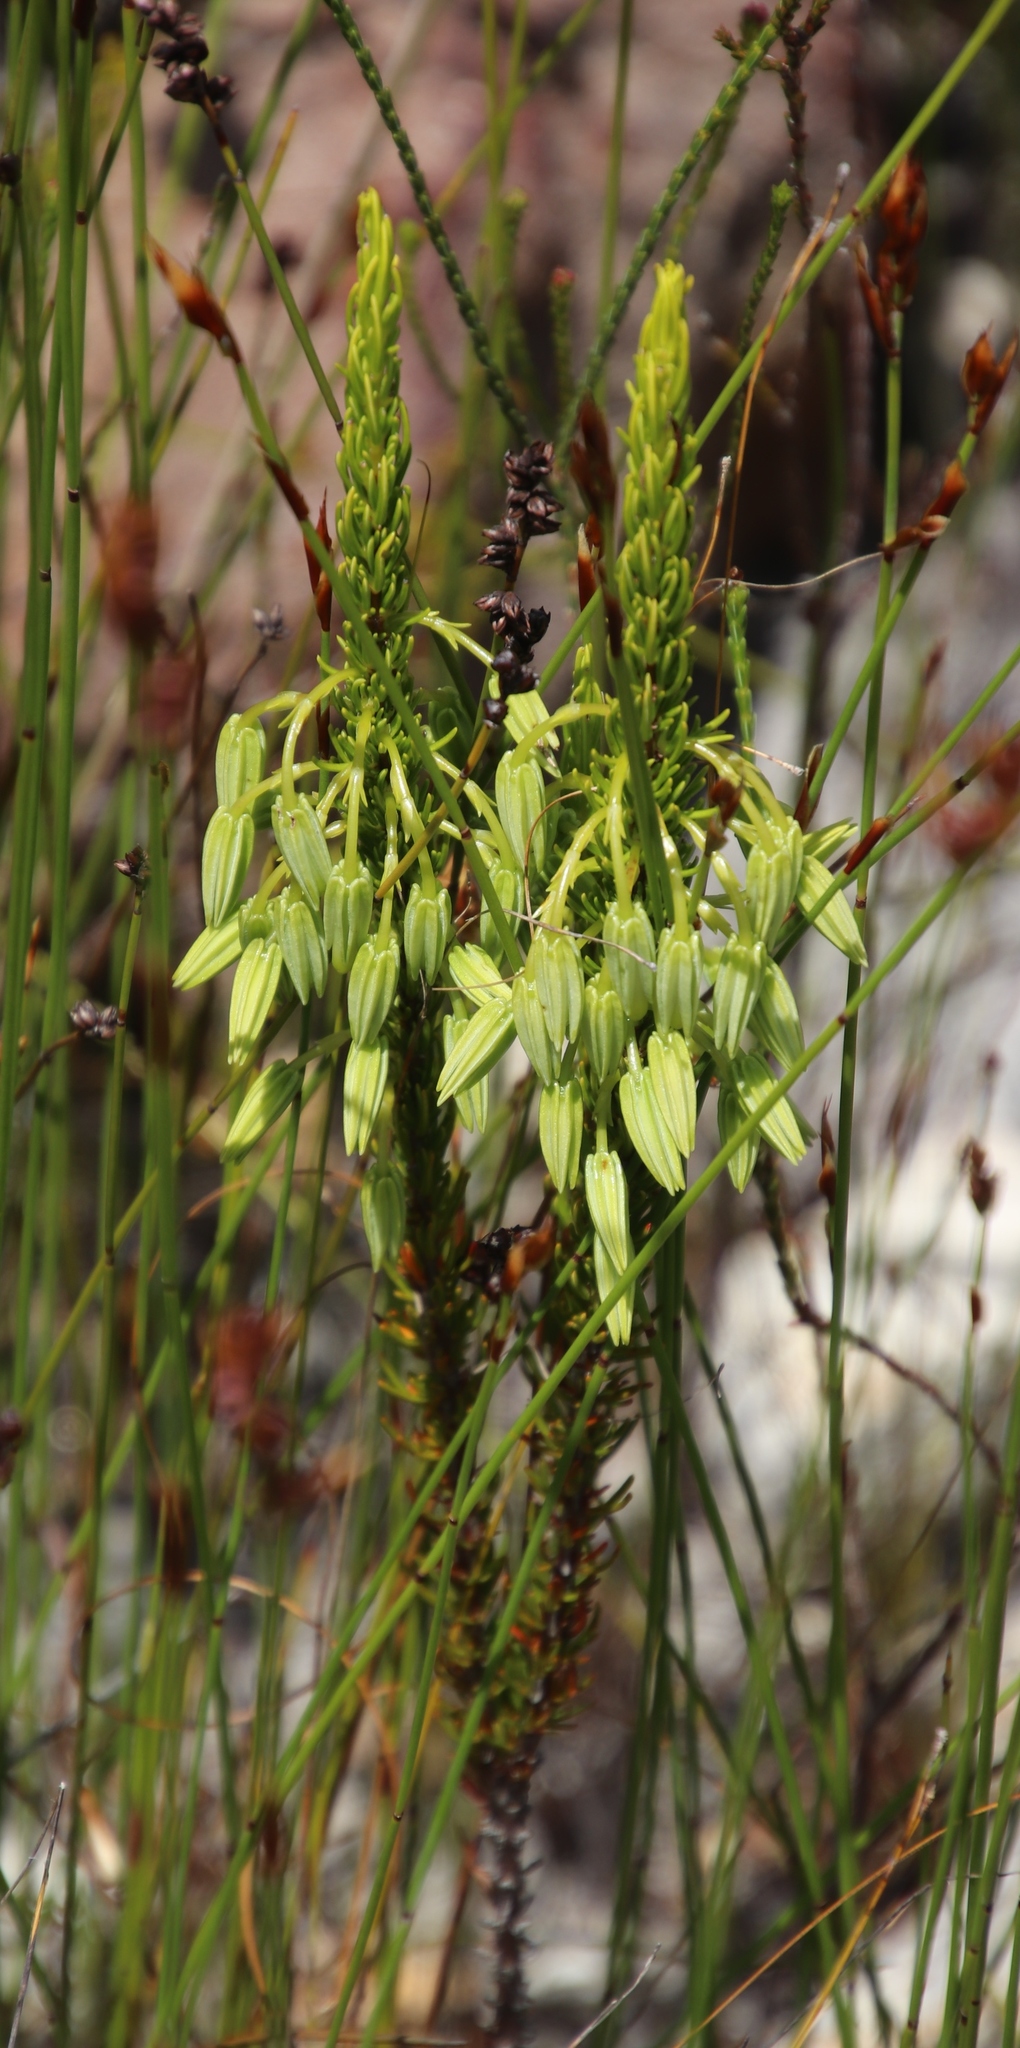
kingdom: Plantae
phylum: Tracheophyta
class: Magnoliopsida
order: Ericales
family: Ericaceae
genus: Erica
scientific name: Erica plukenetii
